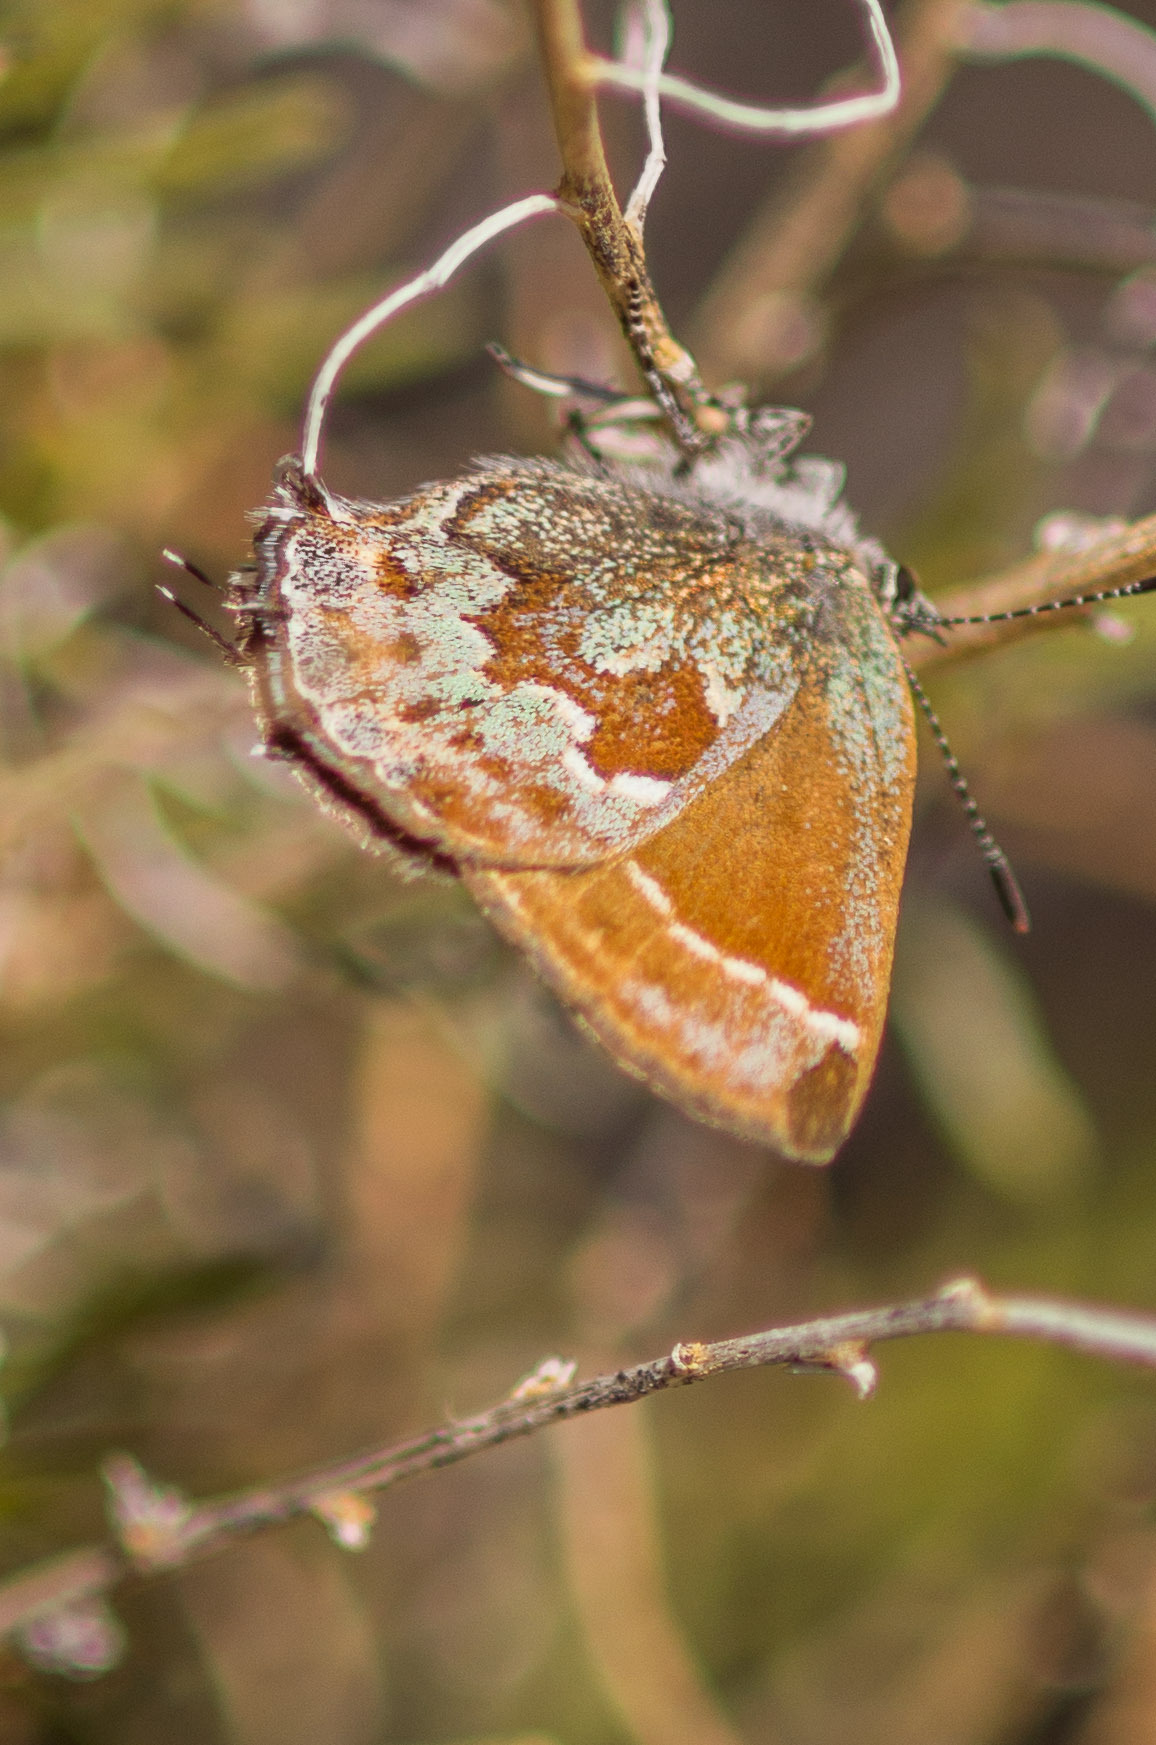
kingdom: Animalia
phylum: Arthropoda
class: Insecta
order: Lepidoptera
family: Lycaenidae
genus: Callophrys
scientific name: Callophrys
